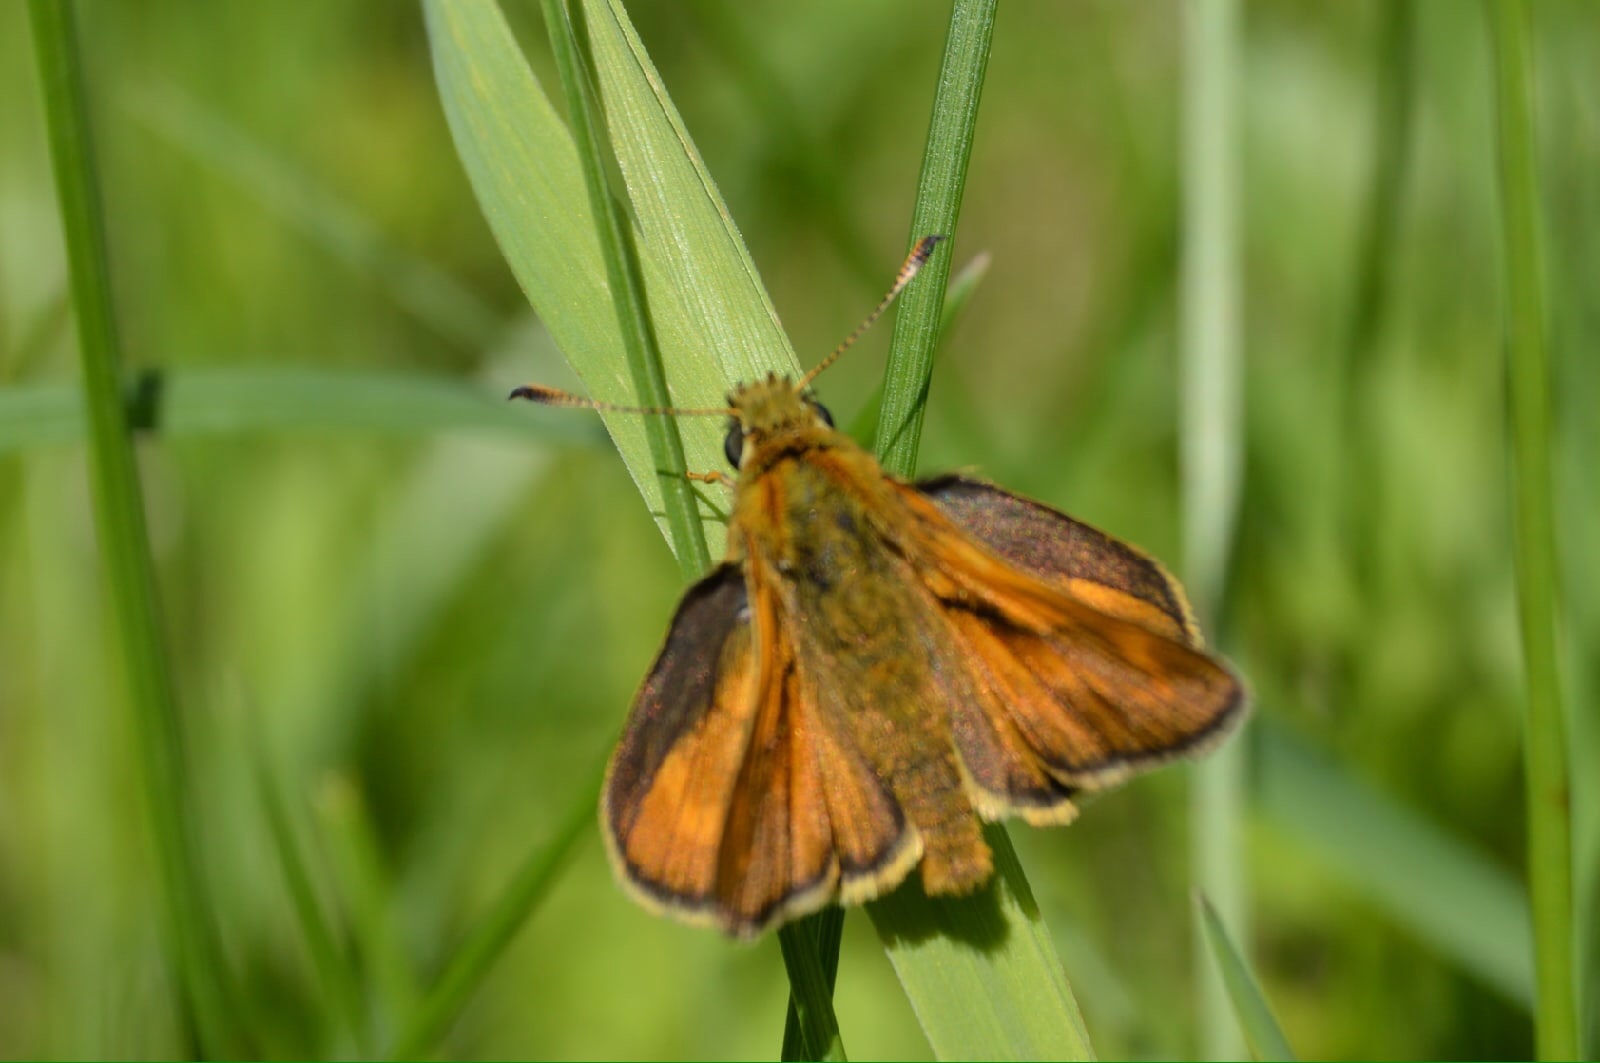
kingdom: Animalia
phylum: Arthropoda
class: Insecta
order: Lepidoptera
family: Hesperiidae
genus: Ochlodes
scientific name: Ochlodes venata
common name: Large skipper
